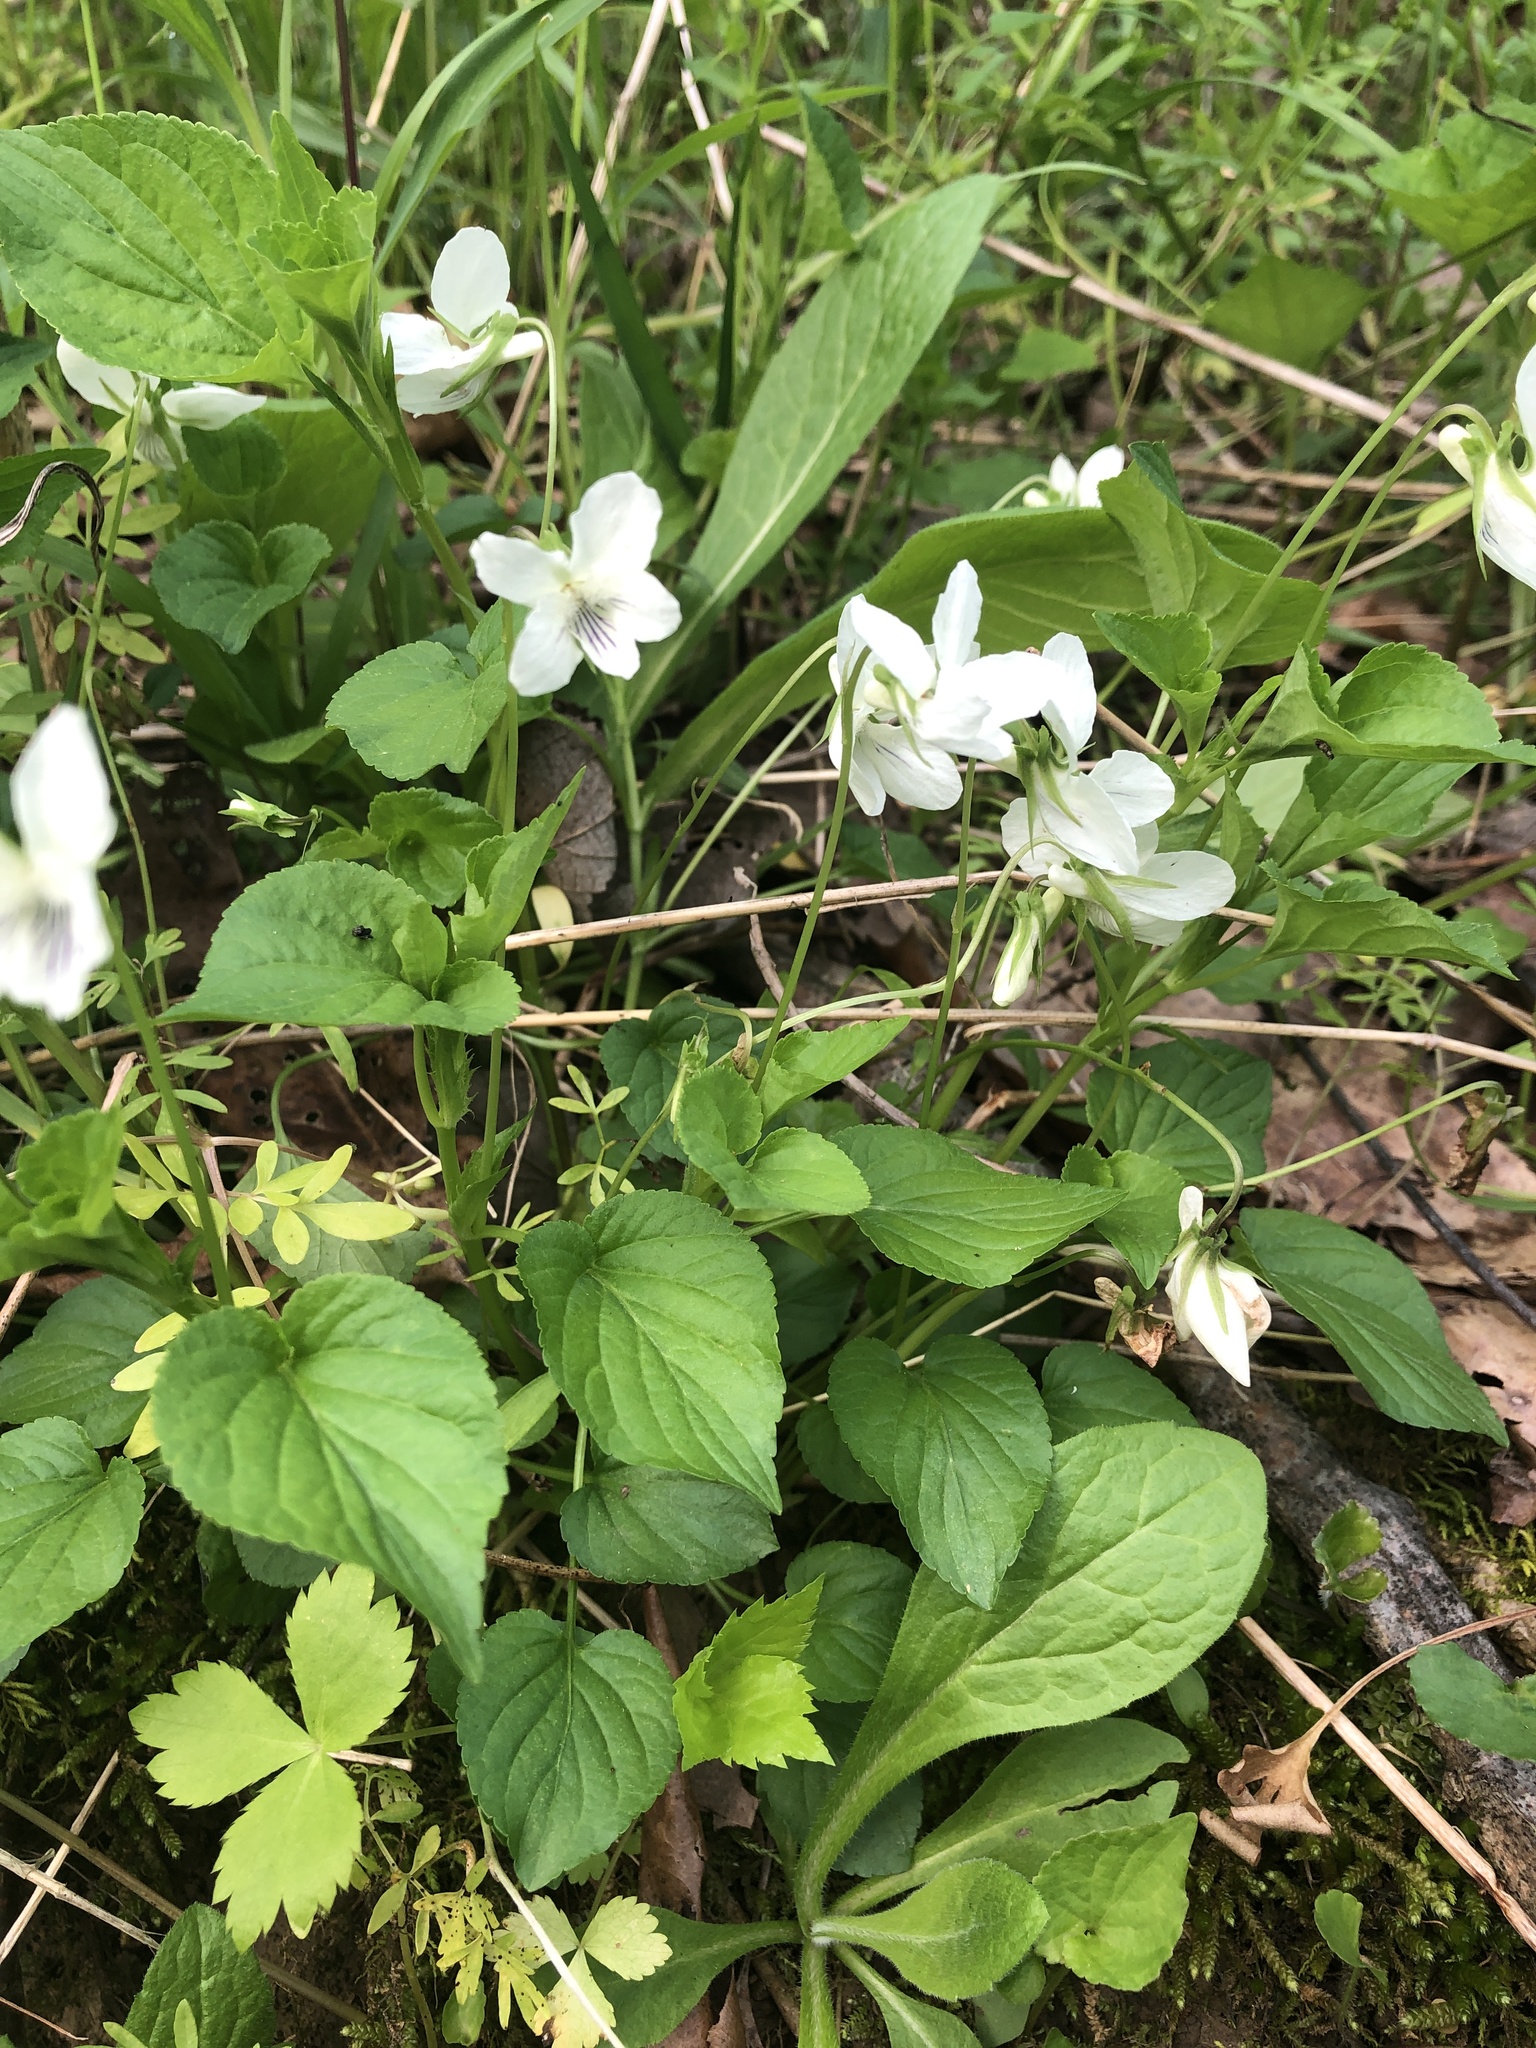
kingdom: Plantae
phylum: Tracheophyta
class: Magnoliopsida
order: Malpighiales
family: Violaceae
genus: Viola
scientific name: Viola striata
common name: Cream violet
